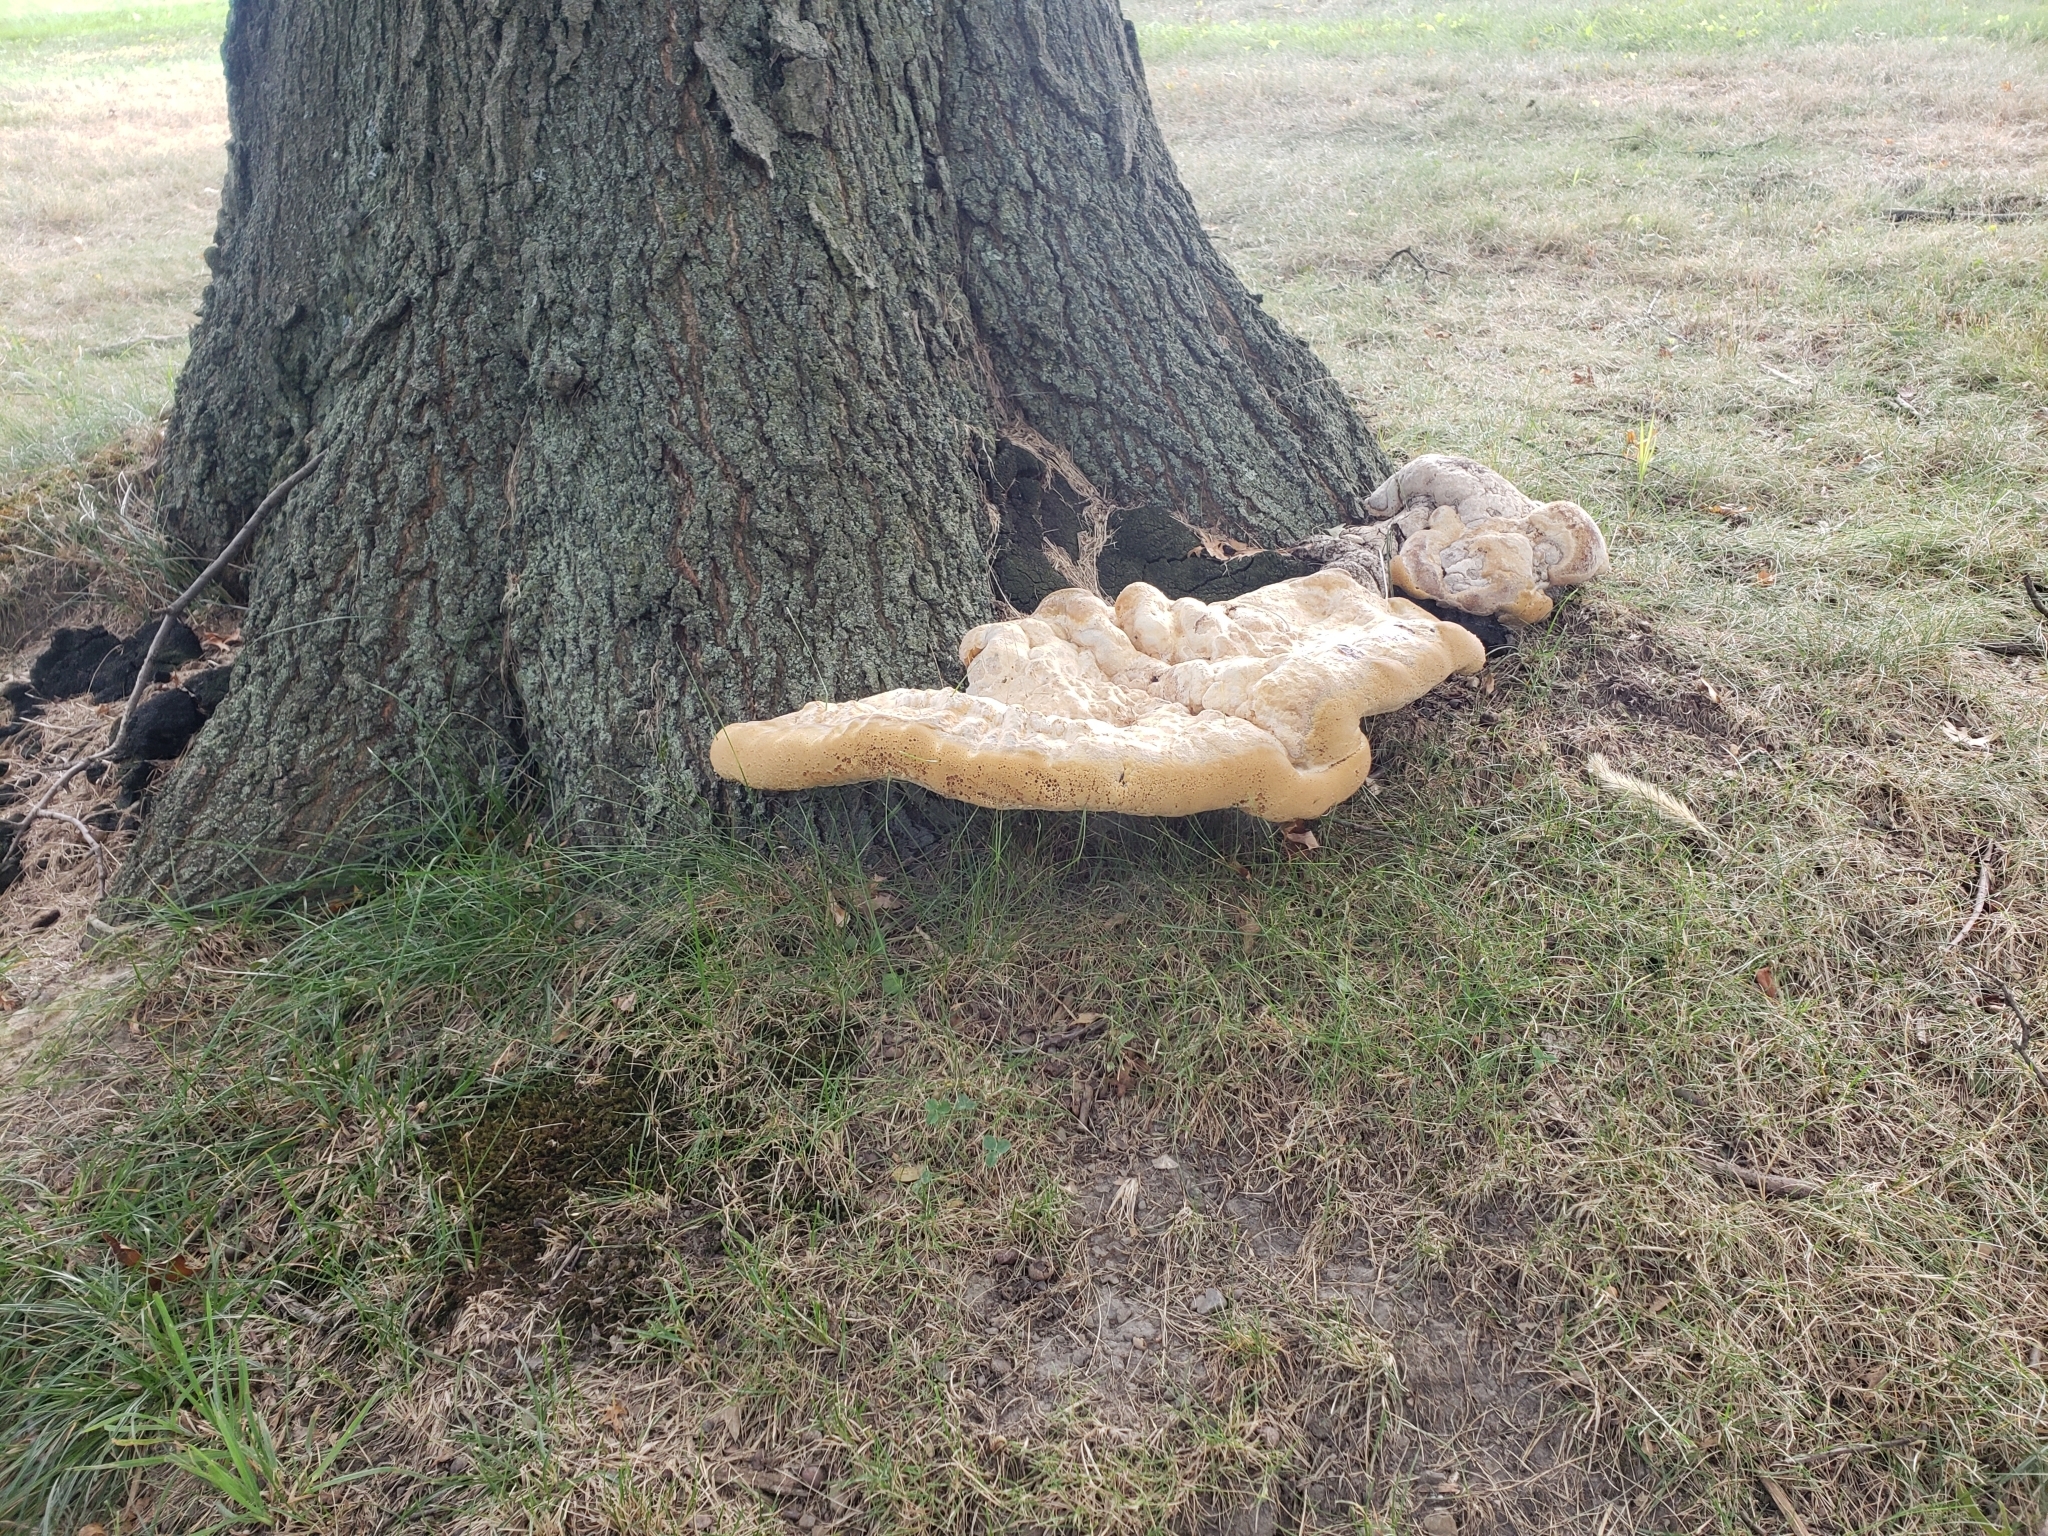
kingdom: Fungi
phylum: Basidiomycota
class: Agaricomycetes
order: Hymenochaetales
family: Hymenochaetaceae
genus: Pseudoinonotus
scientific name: Pseudoinonotus dryadeus
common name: Oak bracket
